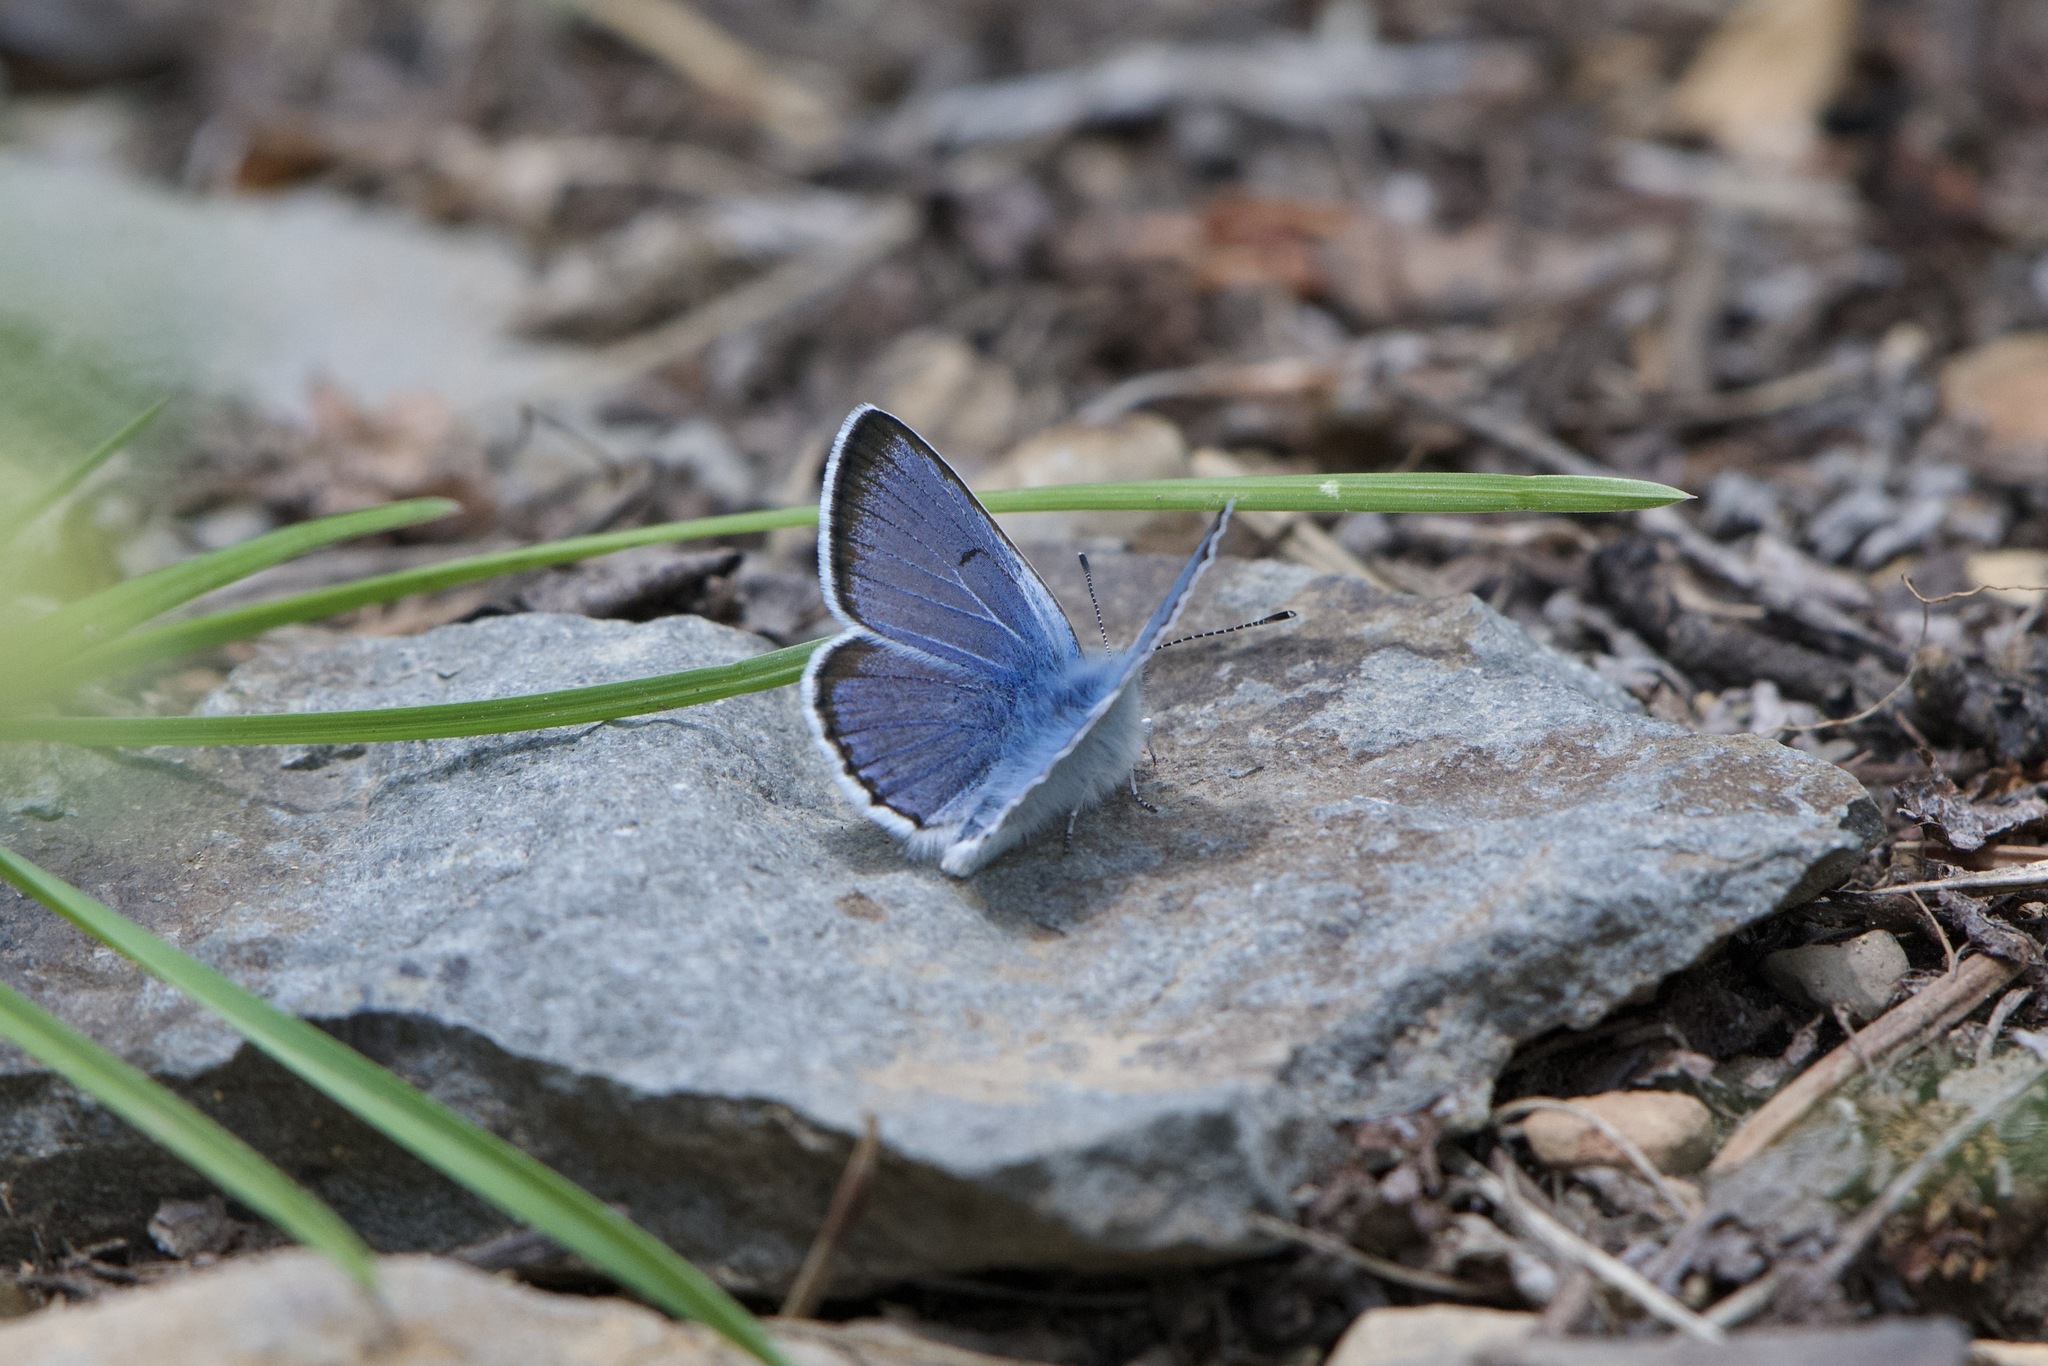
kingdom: Animalia
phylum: Arthropoda
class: Insecta
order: Lepidoptera
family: Lycaenidae
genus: Icaricia
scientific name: Icaricia saepiolus
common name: Greenish blue
